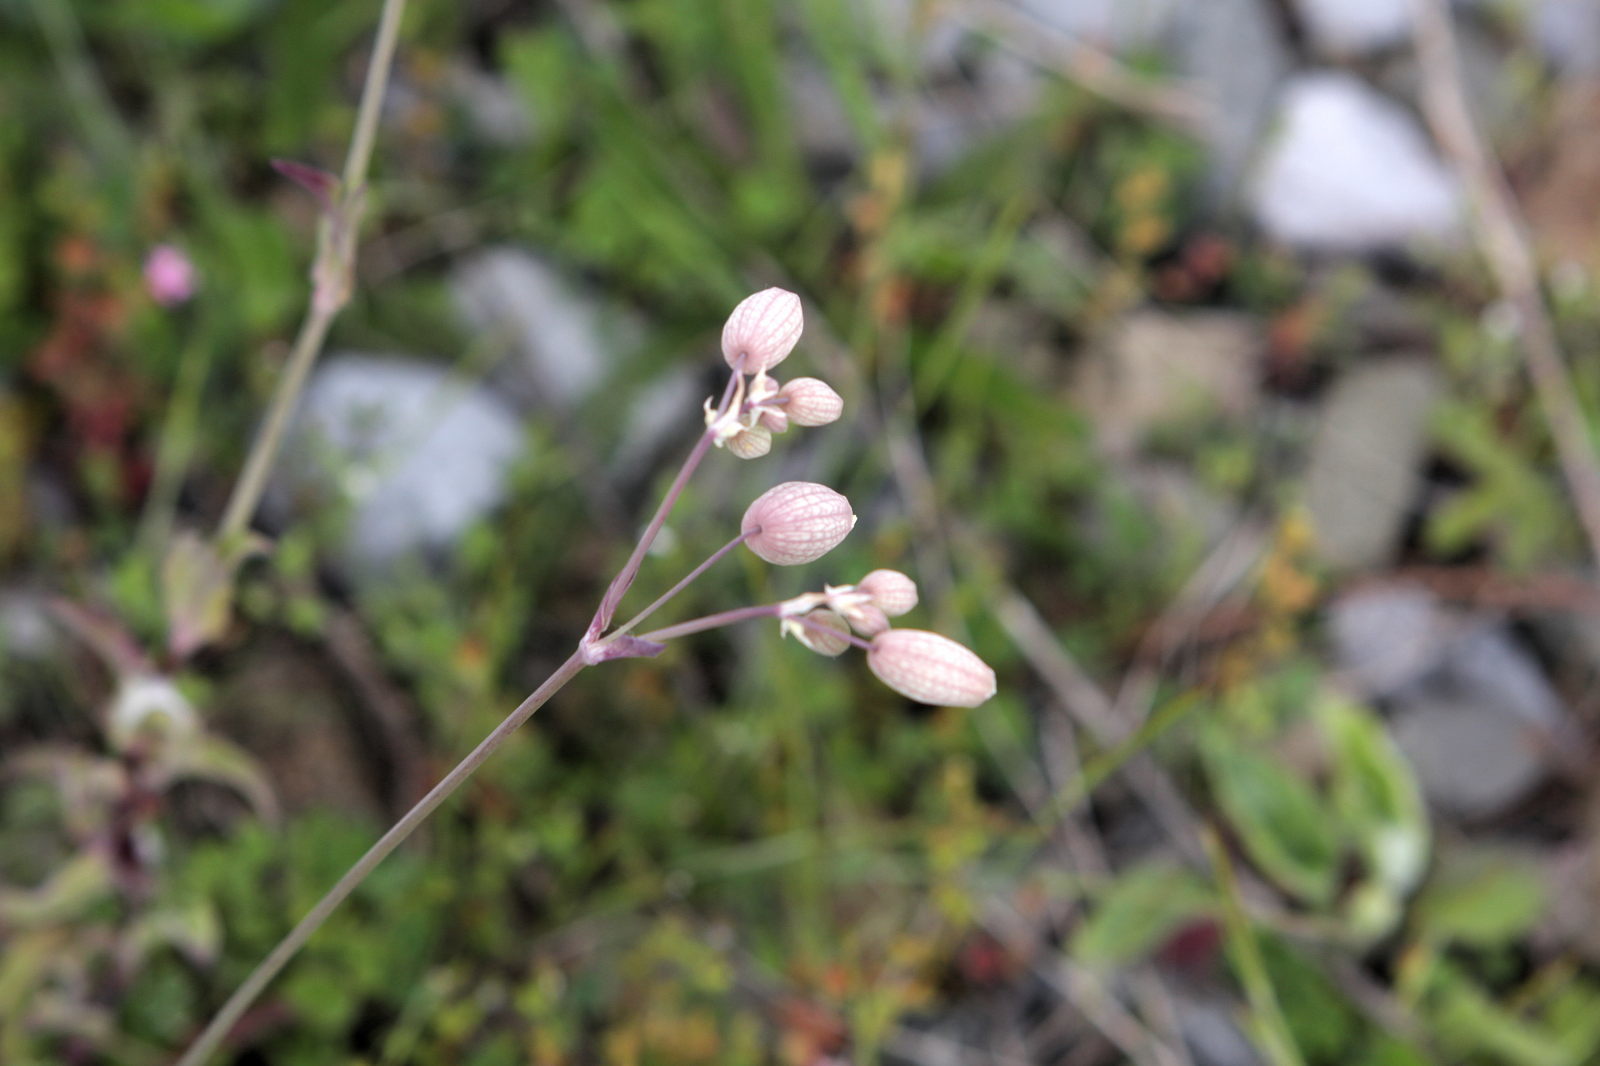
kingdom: Plantae
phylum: Tracheophyta
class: Magnoliopsida
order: Caryophyllales
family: Caryophyllaceae
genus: Silene
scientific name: Silene vulgaris
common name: Bladder campion
